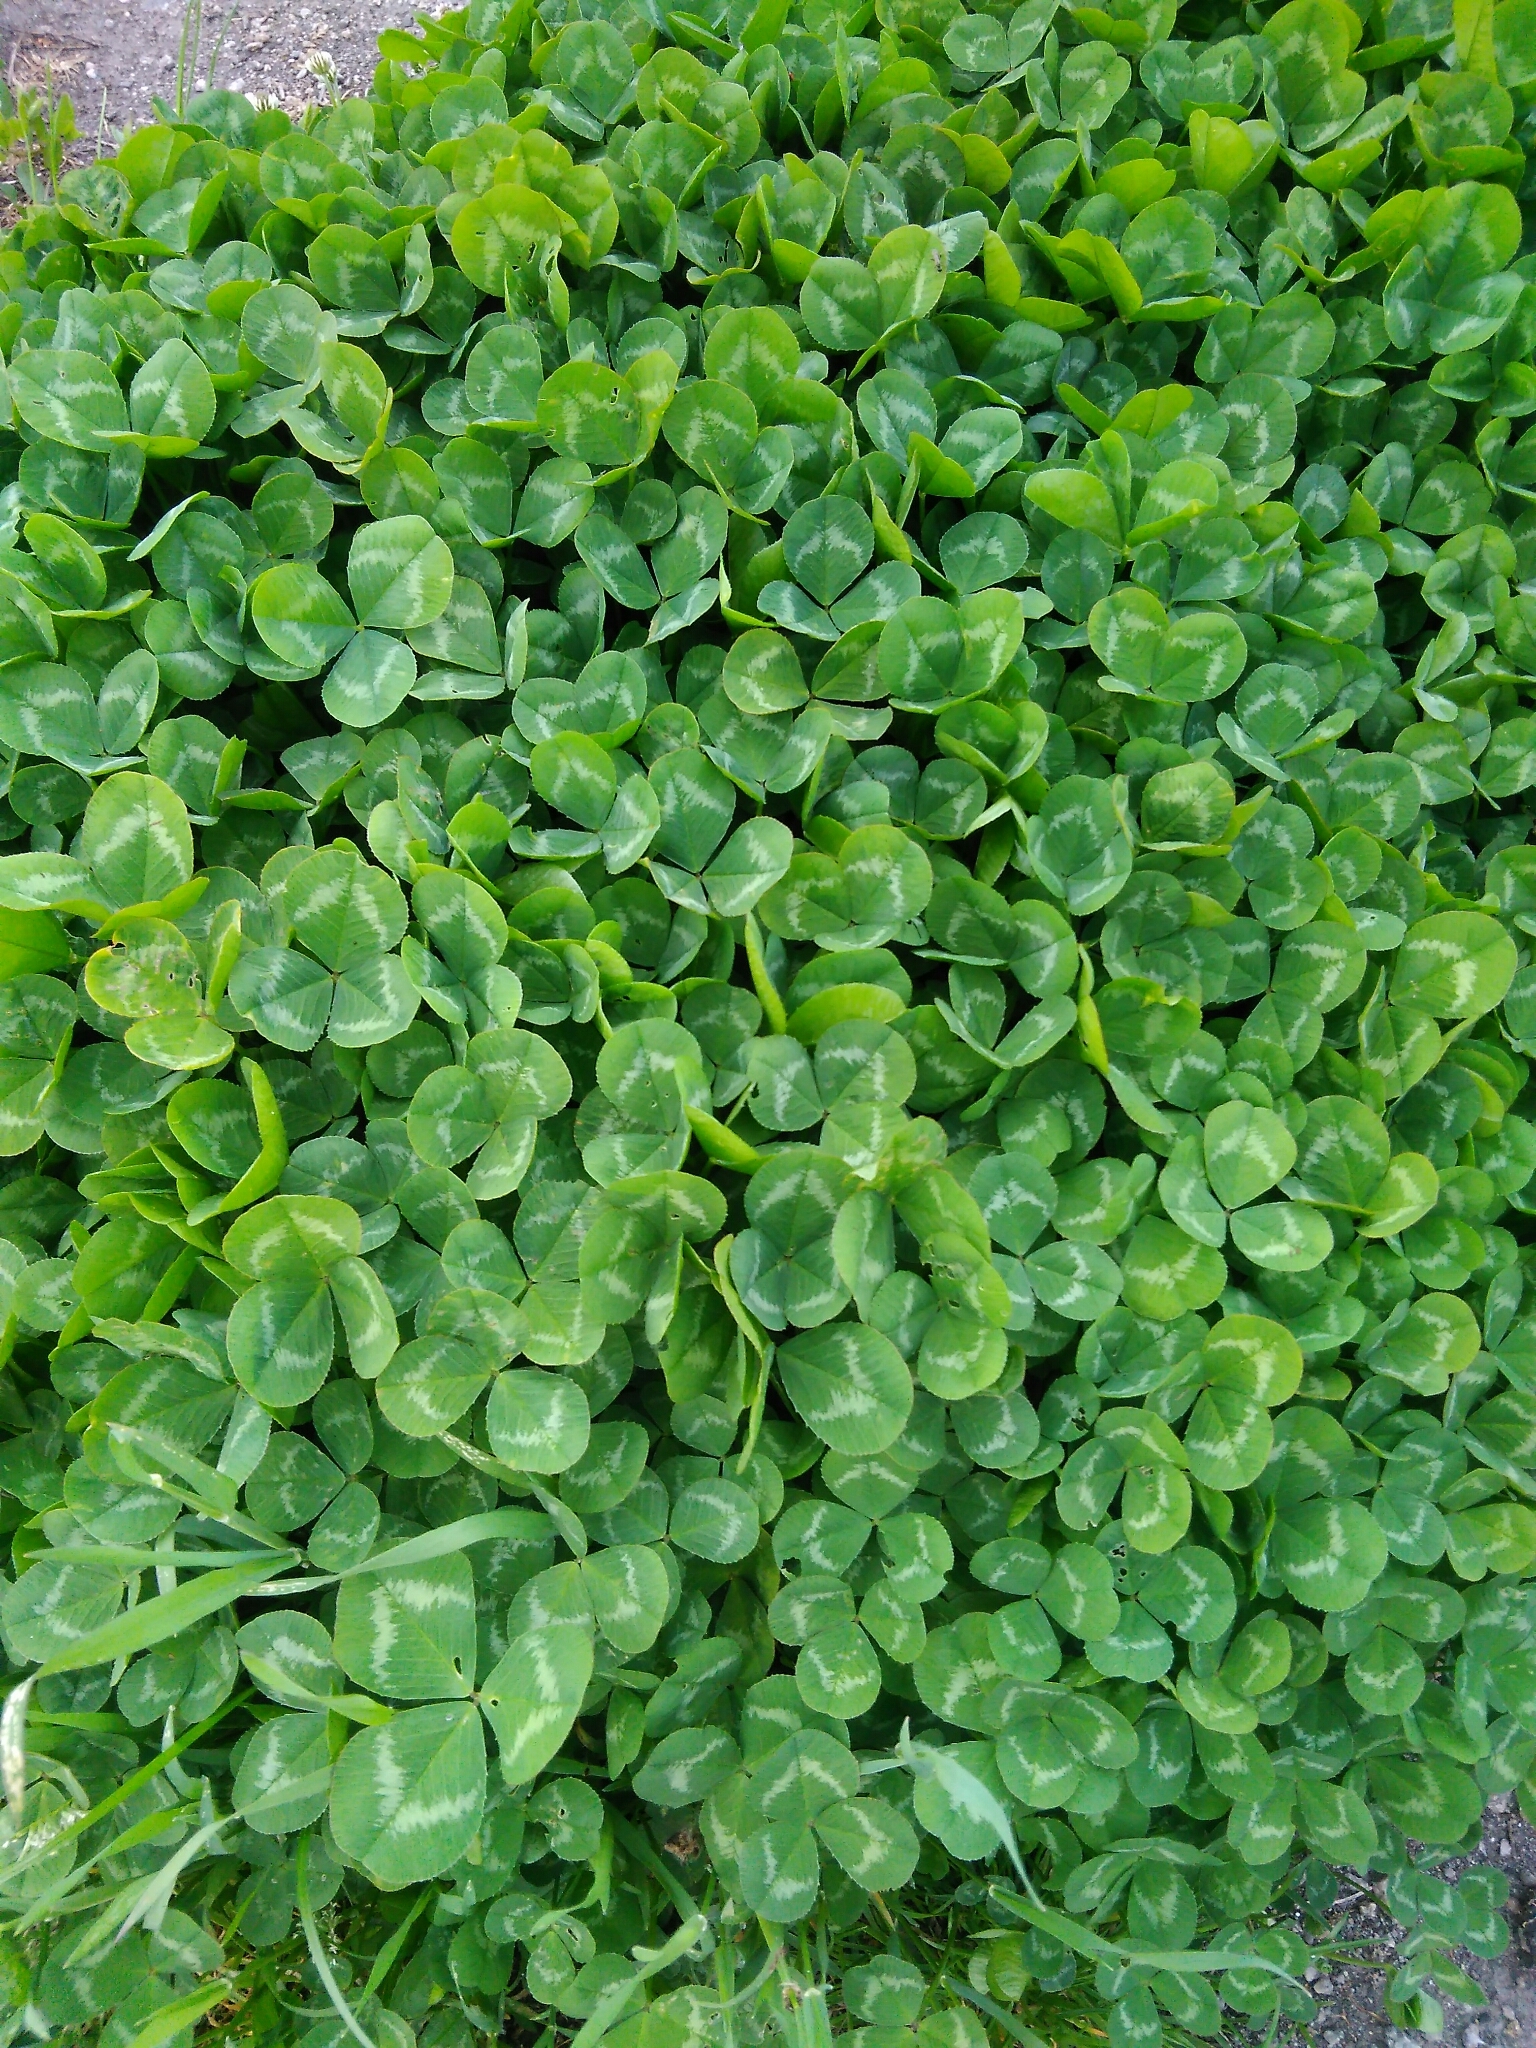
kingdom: Plantae
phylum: Tracheophyta
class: Magnoliopsida
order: Fabales
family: Fabaceae
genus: Trifolium
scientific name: Trifolium repens
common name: White clover
